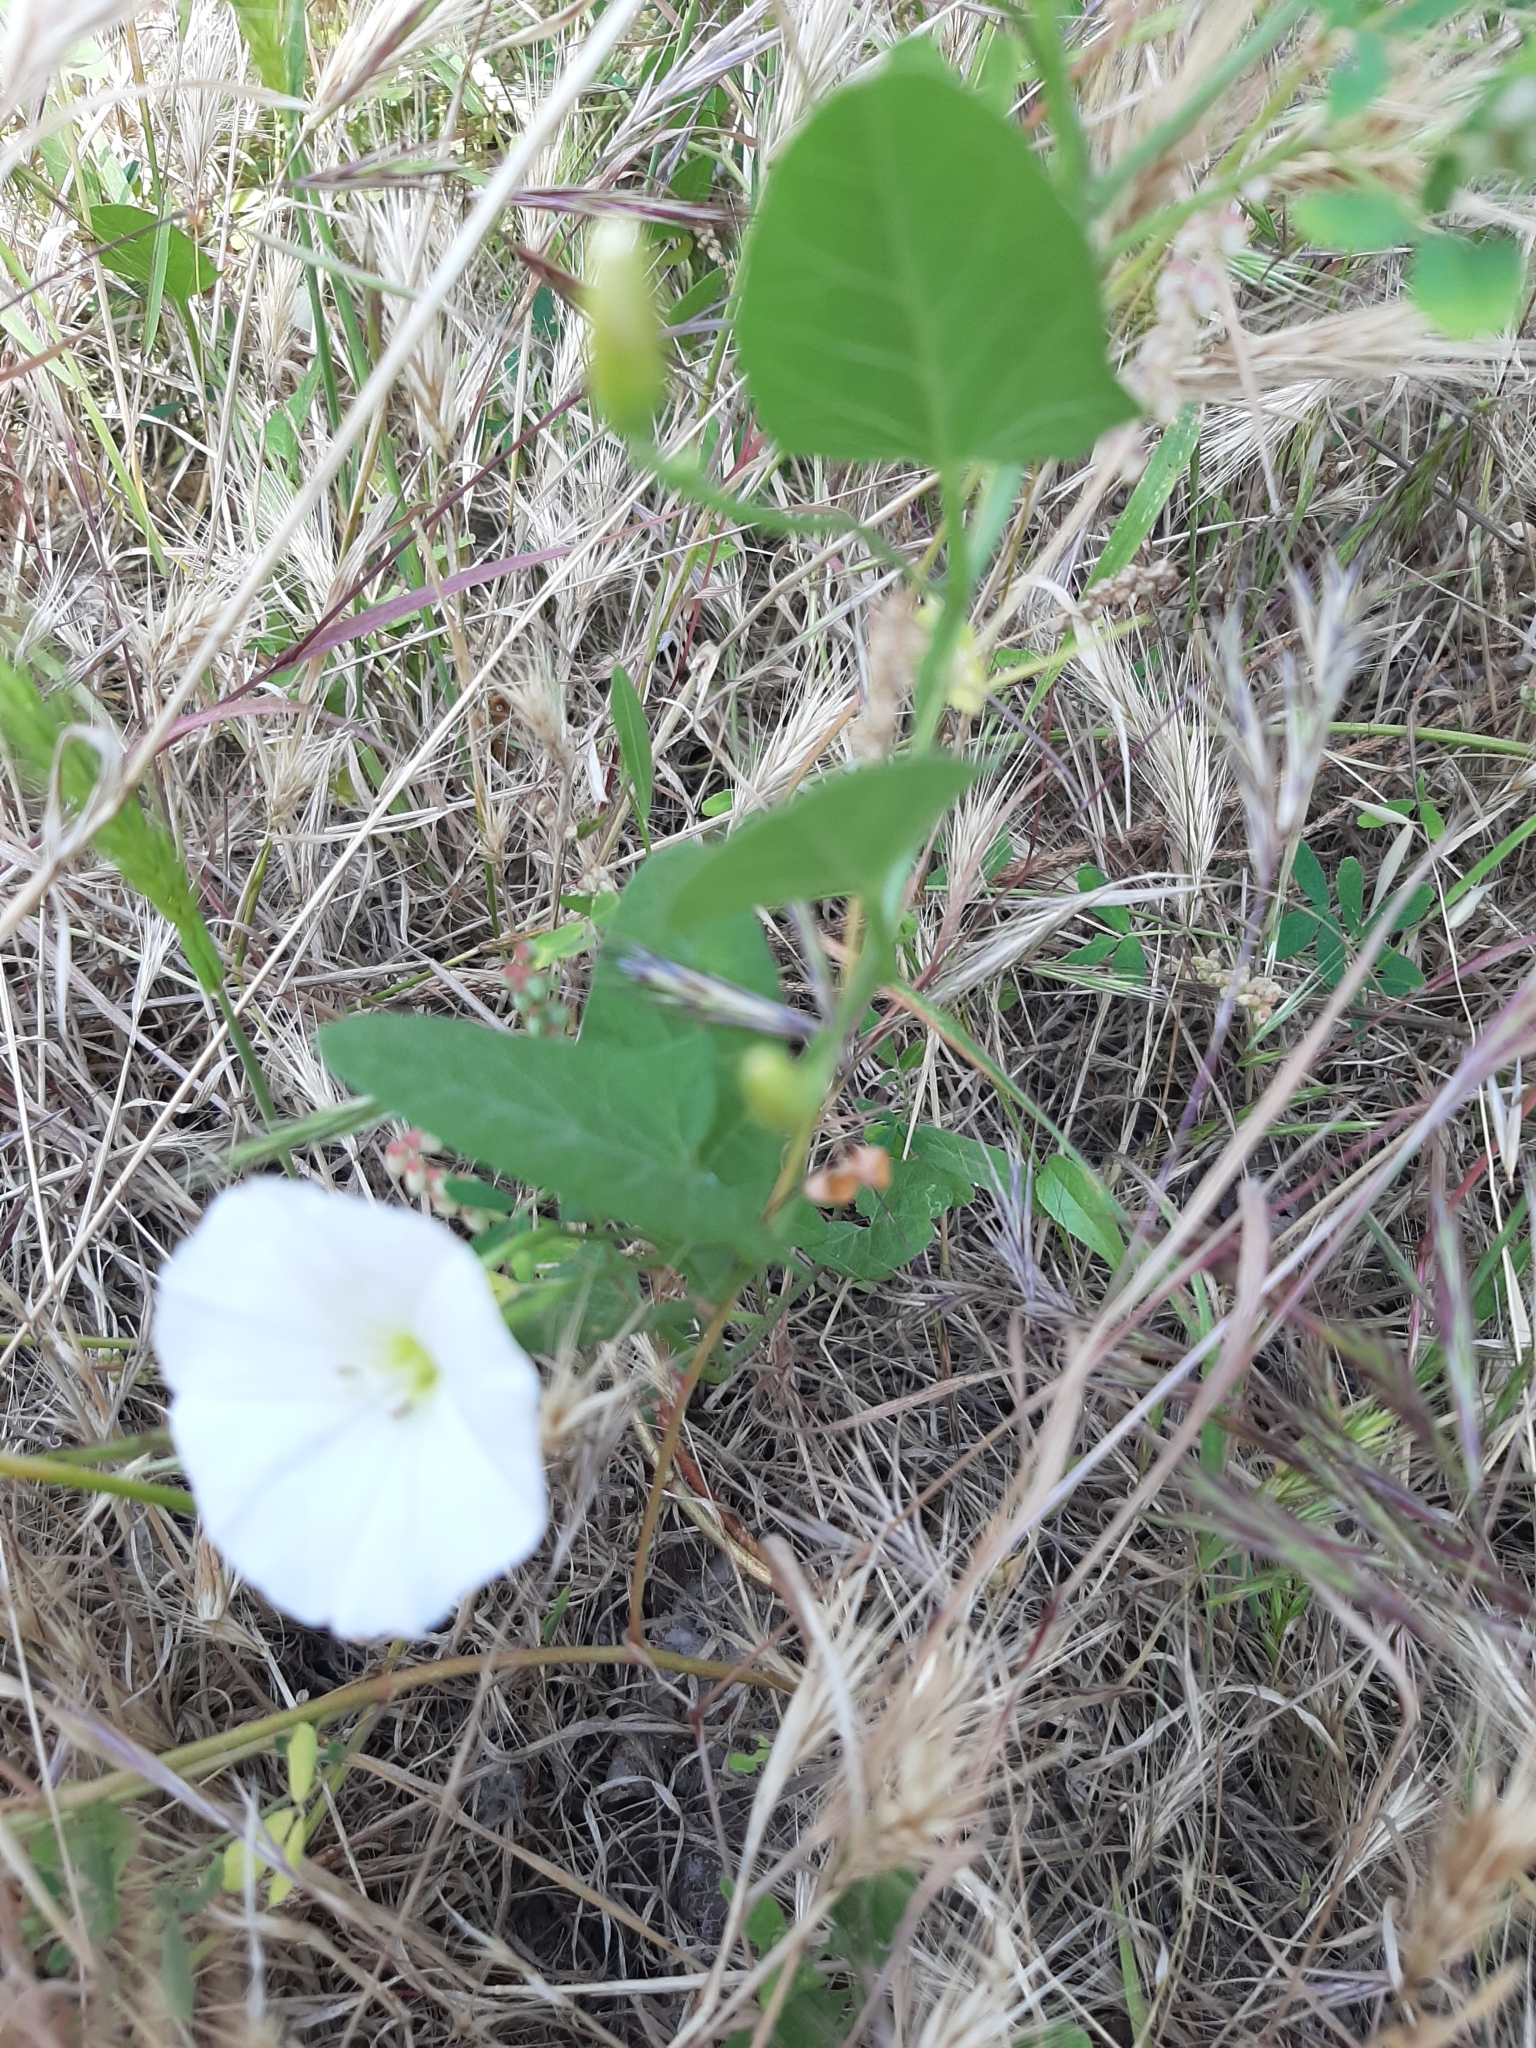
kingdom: Plantae
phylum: Tracheophyta
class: Magnoliopsida
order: Solanales
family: Convolvulaceae
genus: Convolvulus
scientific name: Convolvulus arvensis
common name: Field bindweed
